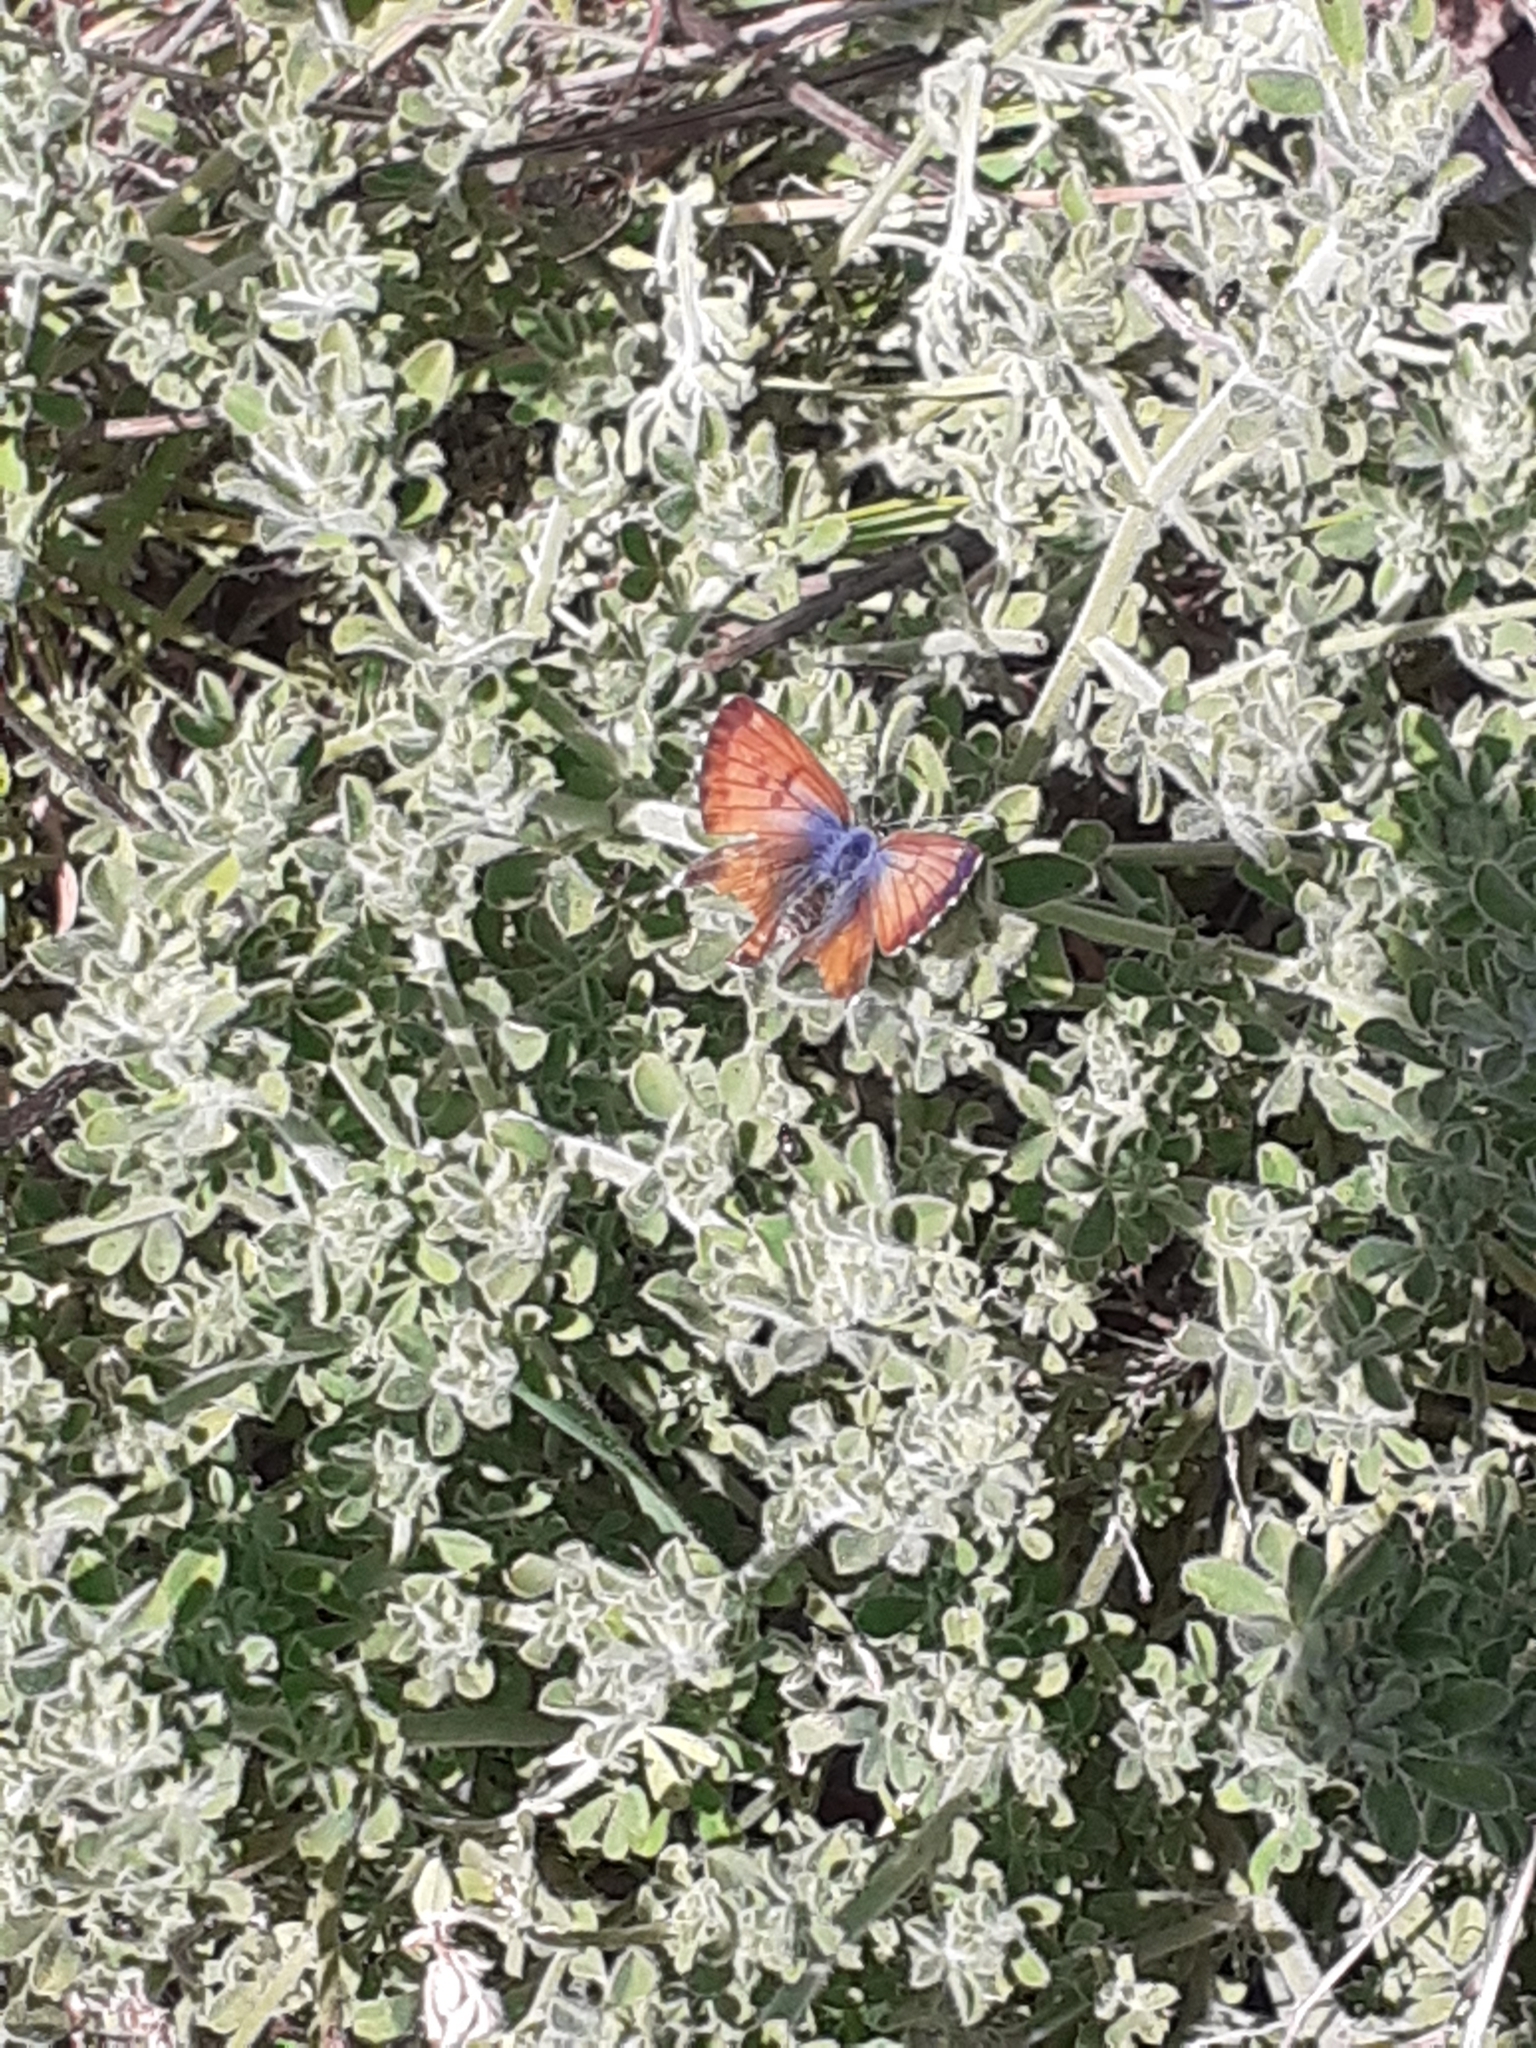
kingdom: Animalia
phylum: Arthropoda
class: Insecta
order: Lepidoptera
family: Lycaenidae
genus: Cyclyrius
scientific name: Cyclyrius webbianus
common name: Canary blue
